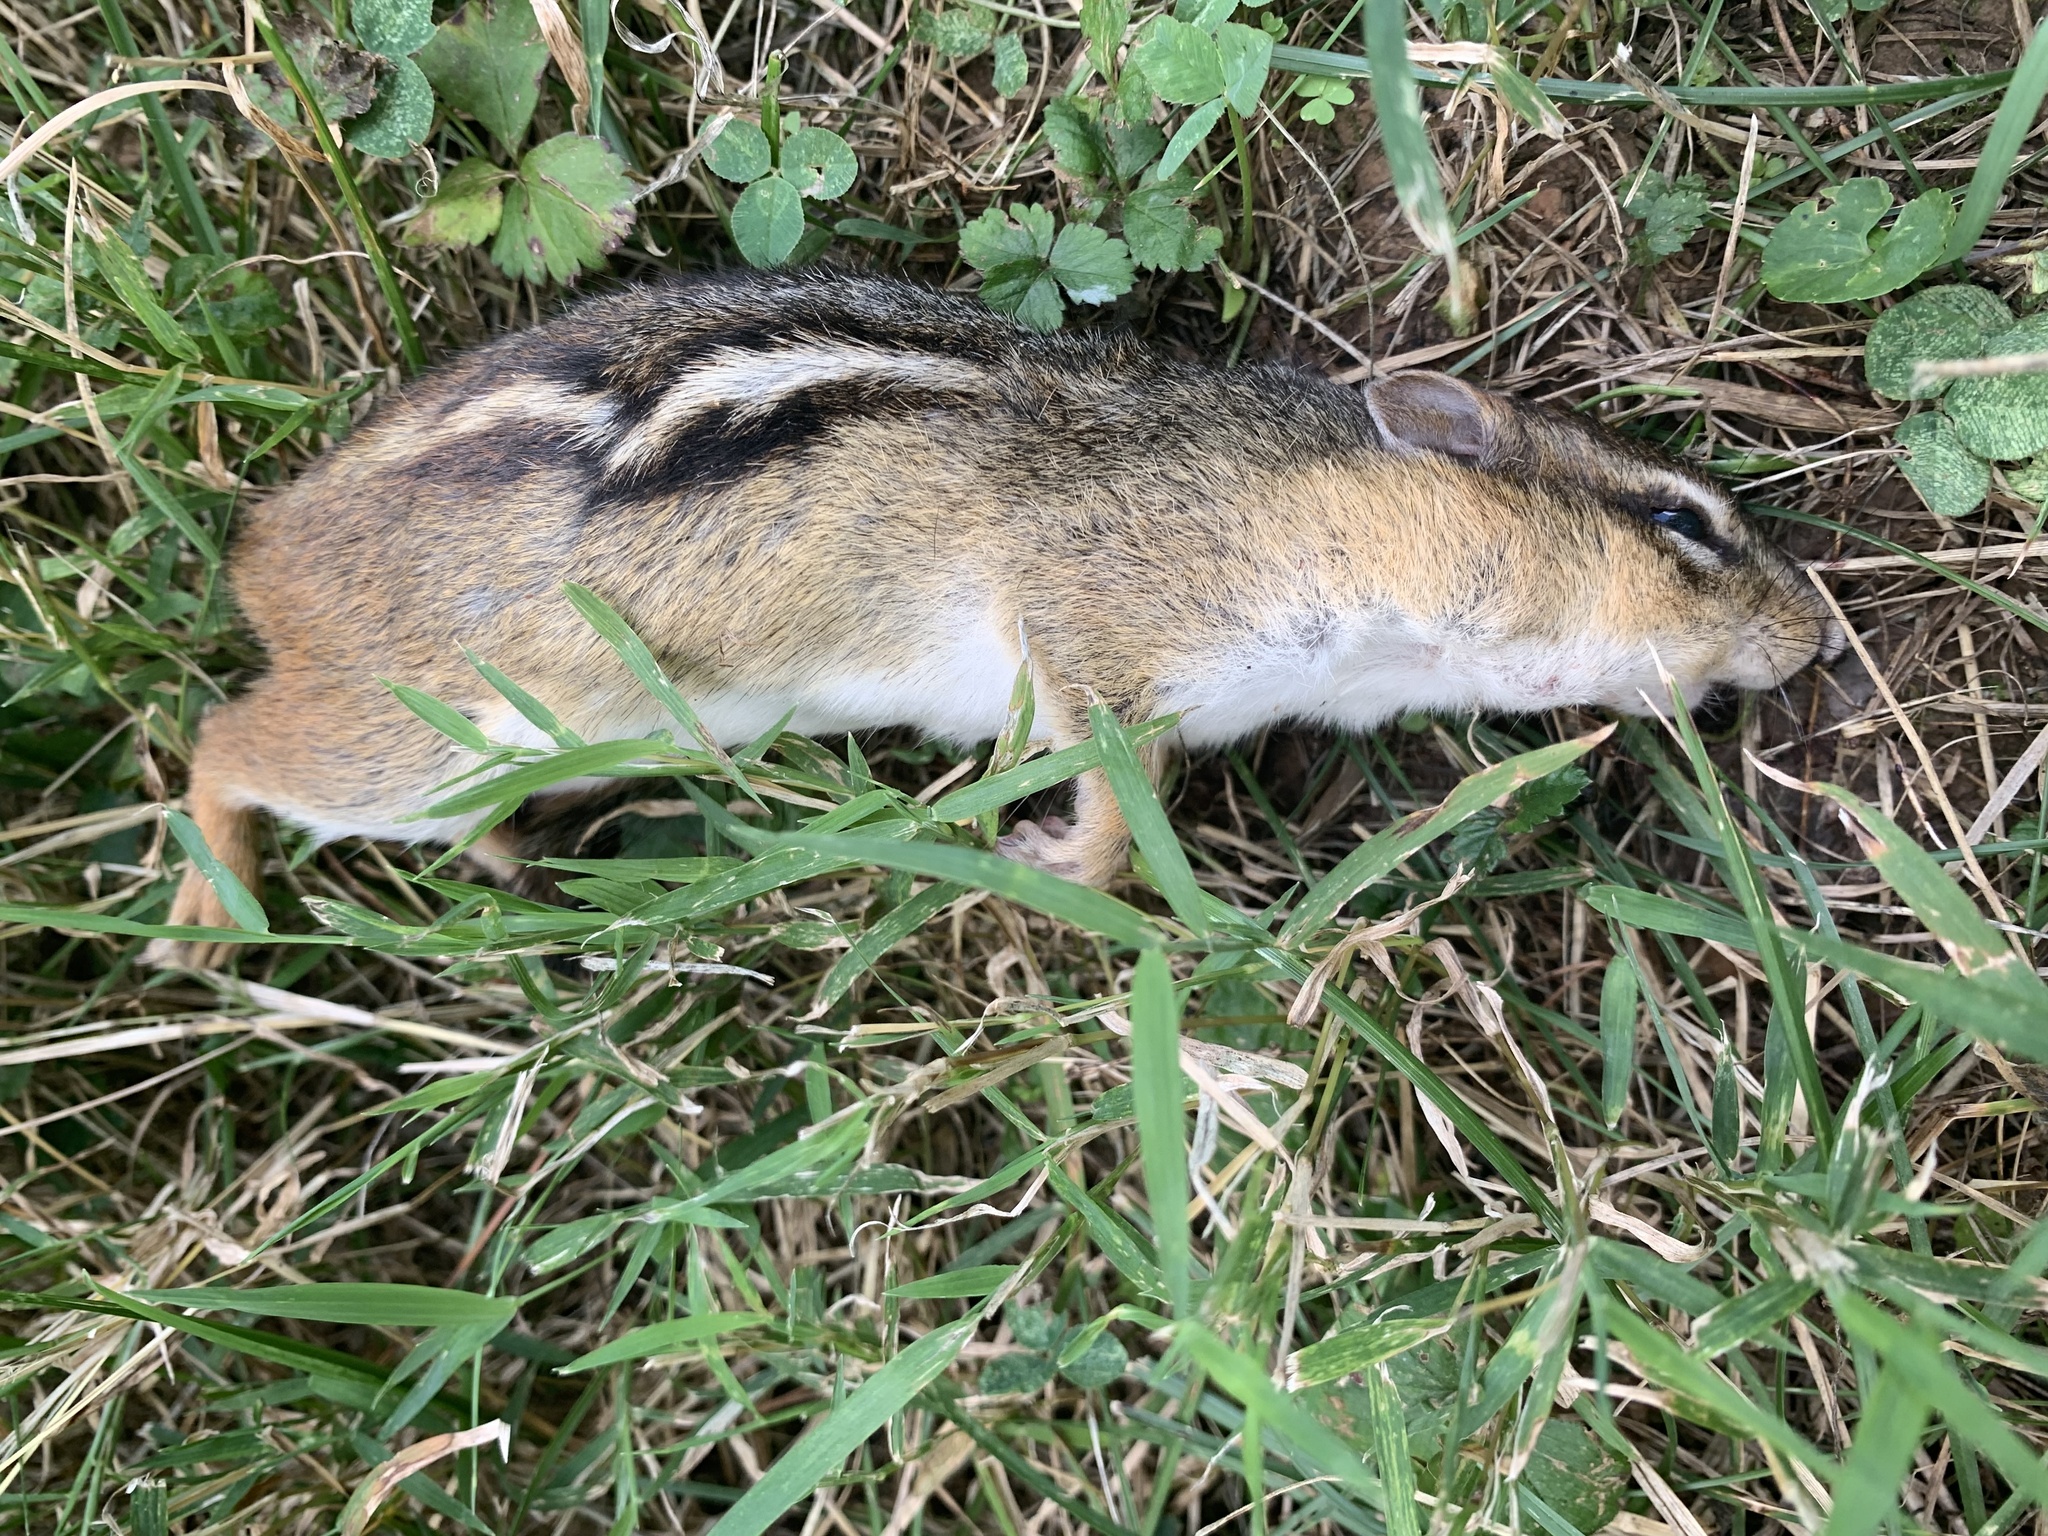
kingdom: Animalia
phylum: Chordata
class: Mammalia
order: Rodentia
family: Sciuridae
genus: Tamias
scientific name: Tamias striatus
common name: Eastern chipmunk
